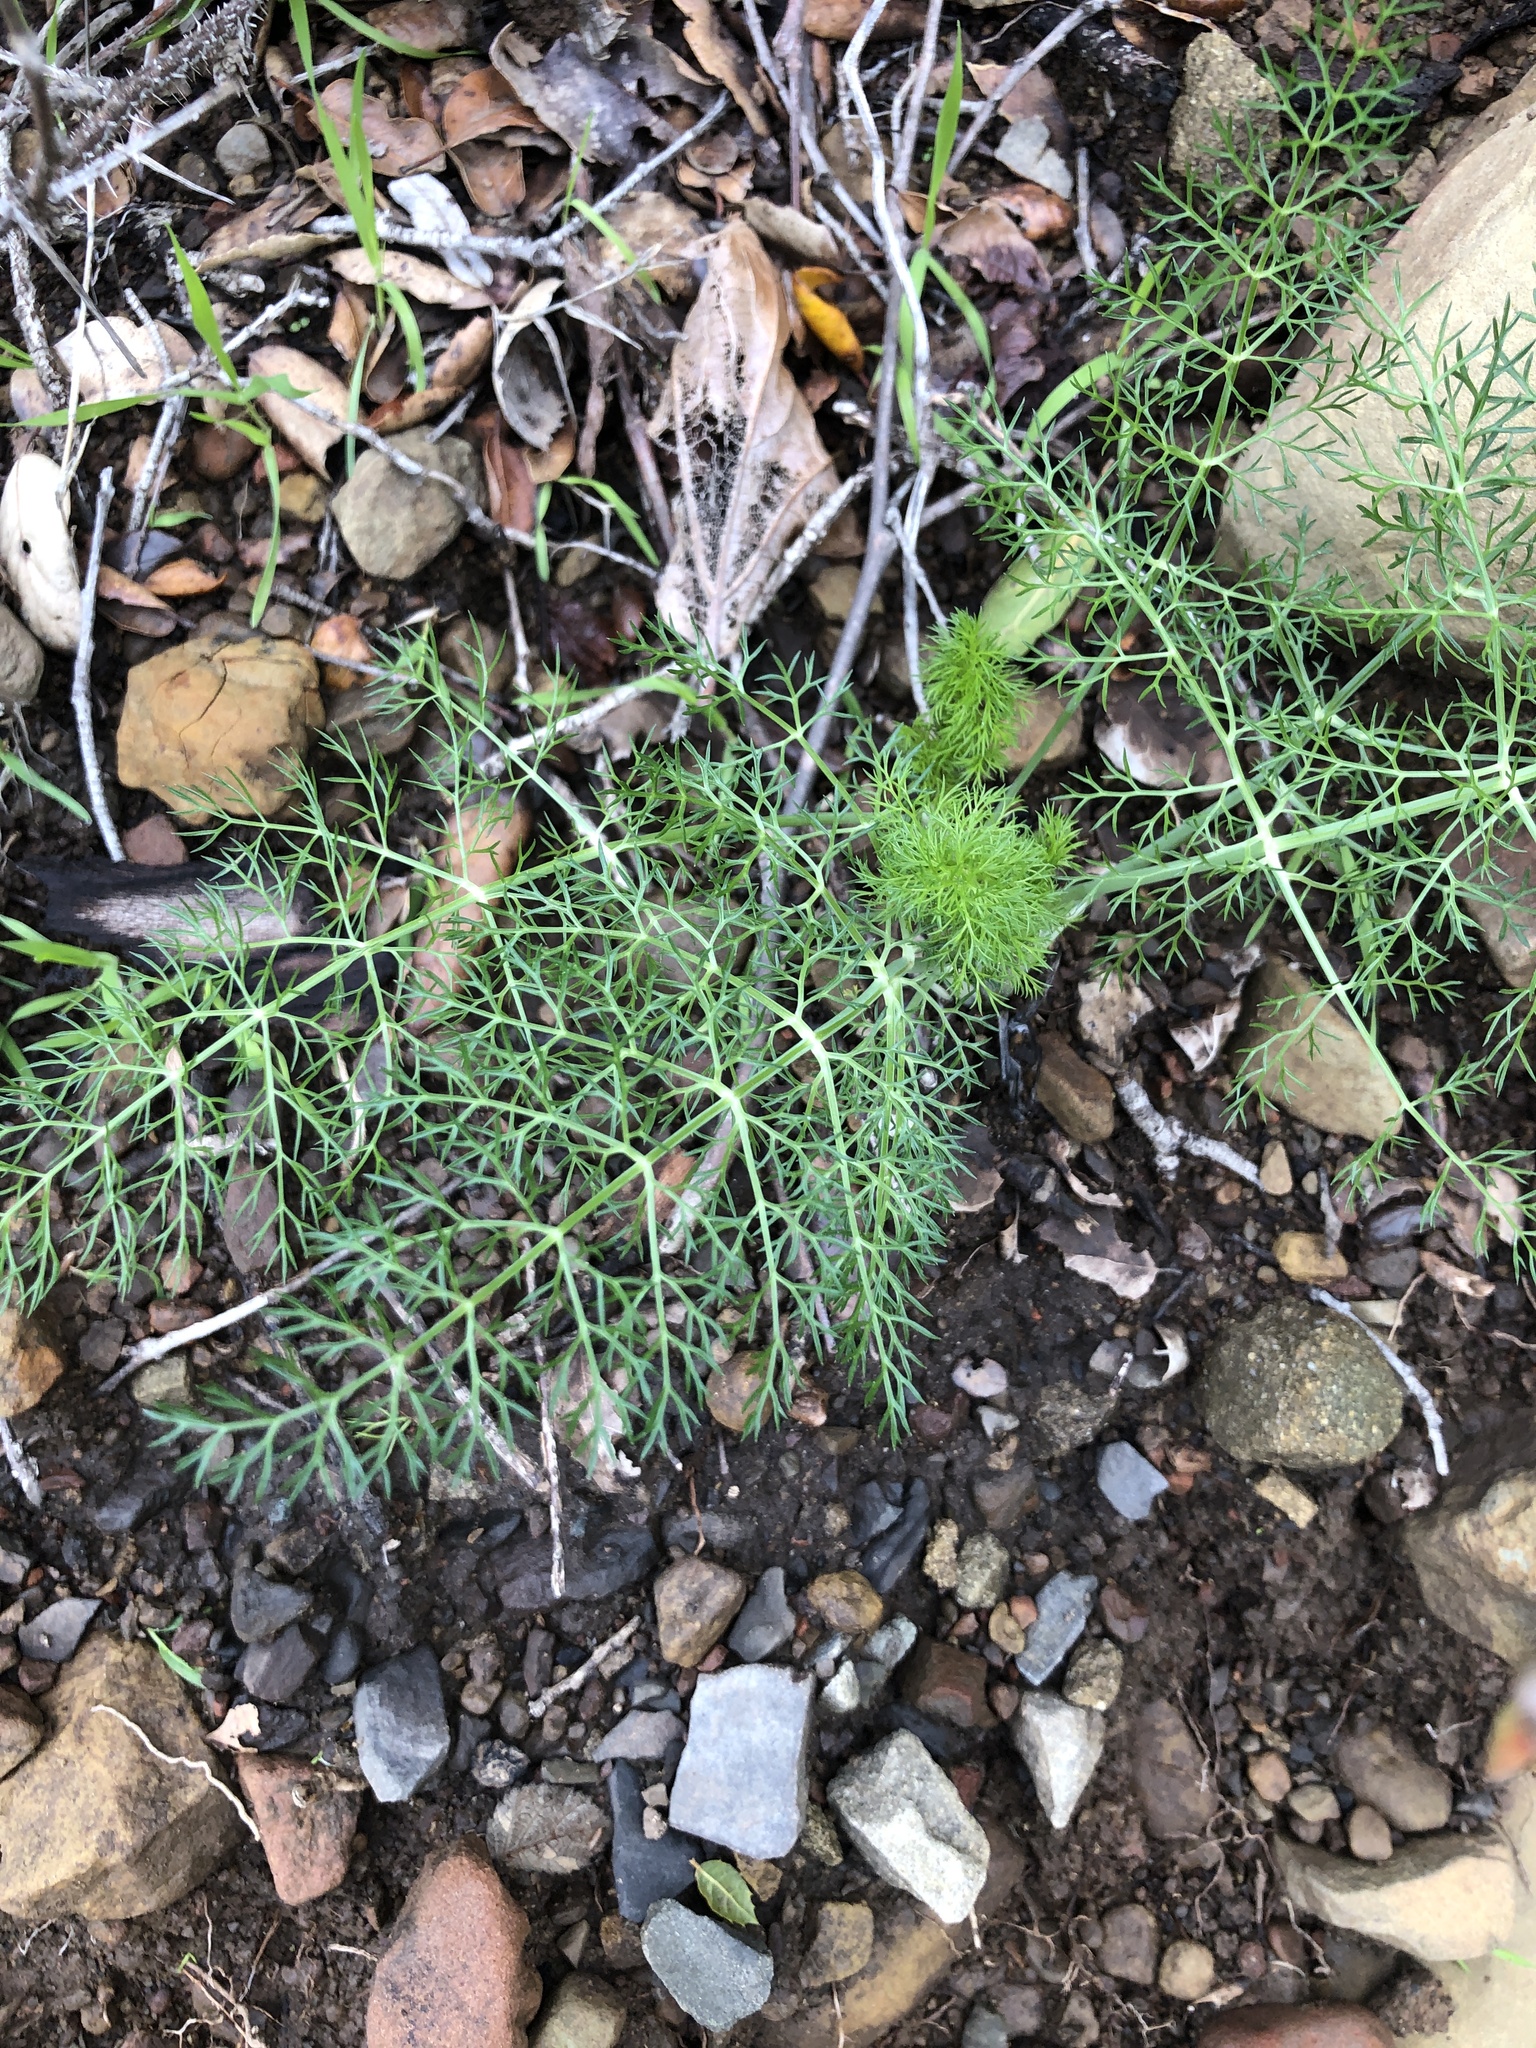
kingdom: Plantae
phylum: Tracheophyta
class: Magnoliopsida
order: Apiales
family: Apiaceae
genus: Foeniculum
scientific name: Foeniculum vulgare
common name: Fennel
